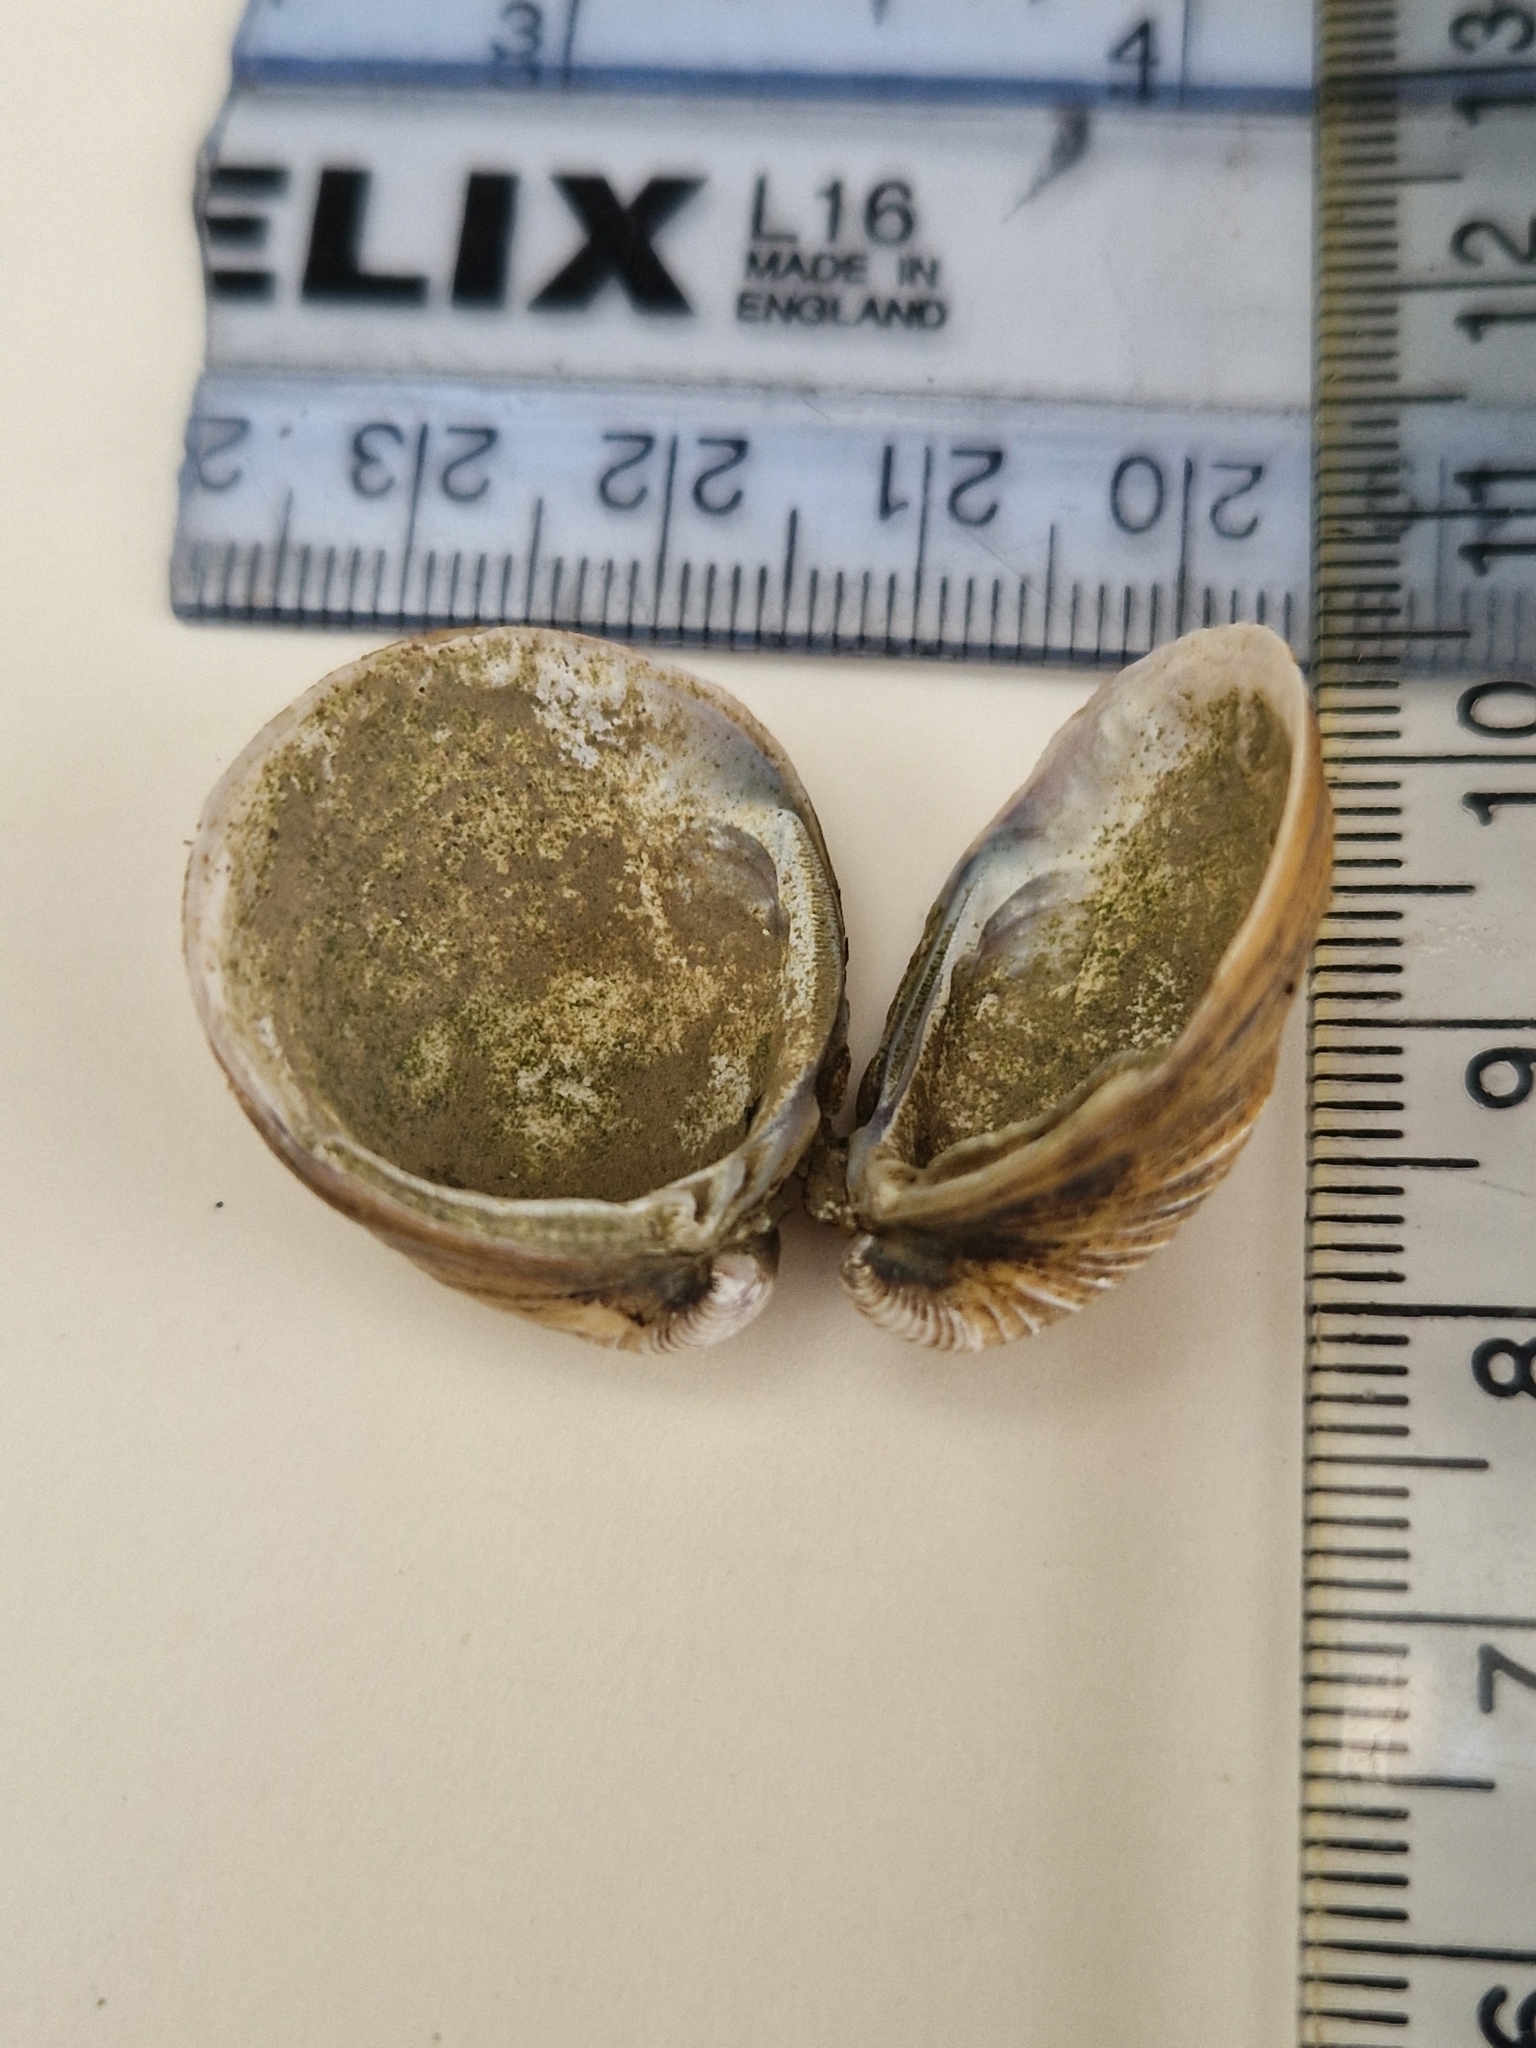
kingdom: Animalia
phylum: Mollusca
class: Bivalvia
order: Venerida
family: Cyrenidae
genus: Corbicula
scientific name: Corbicula fluminea
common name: Asian clam
